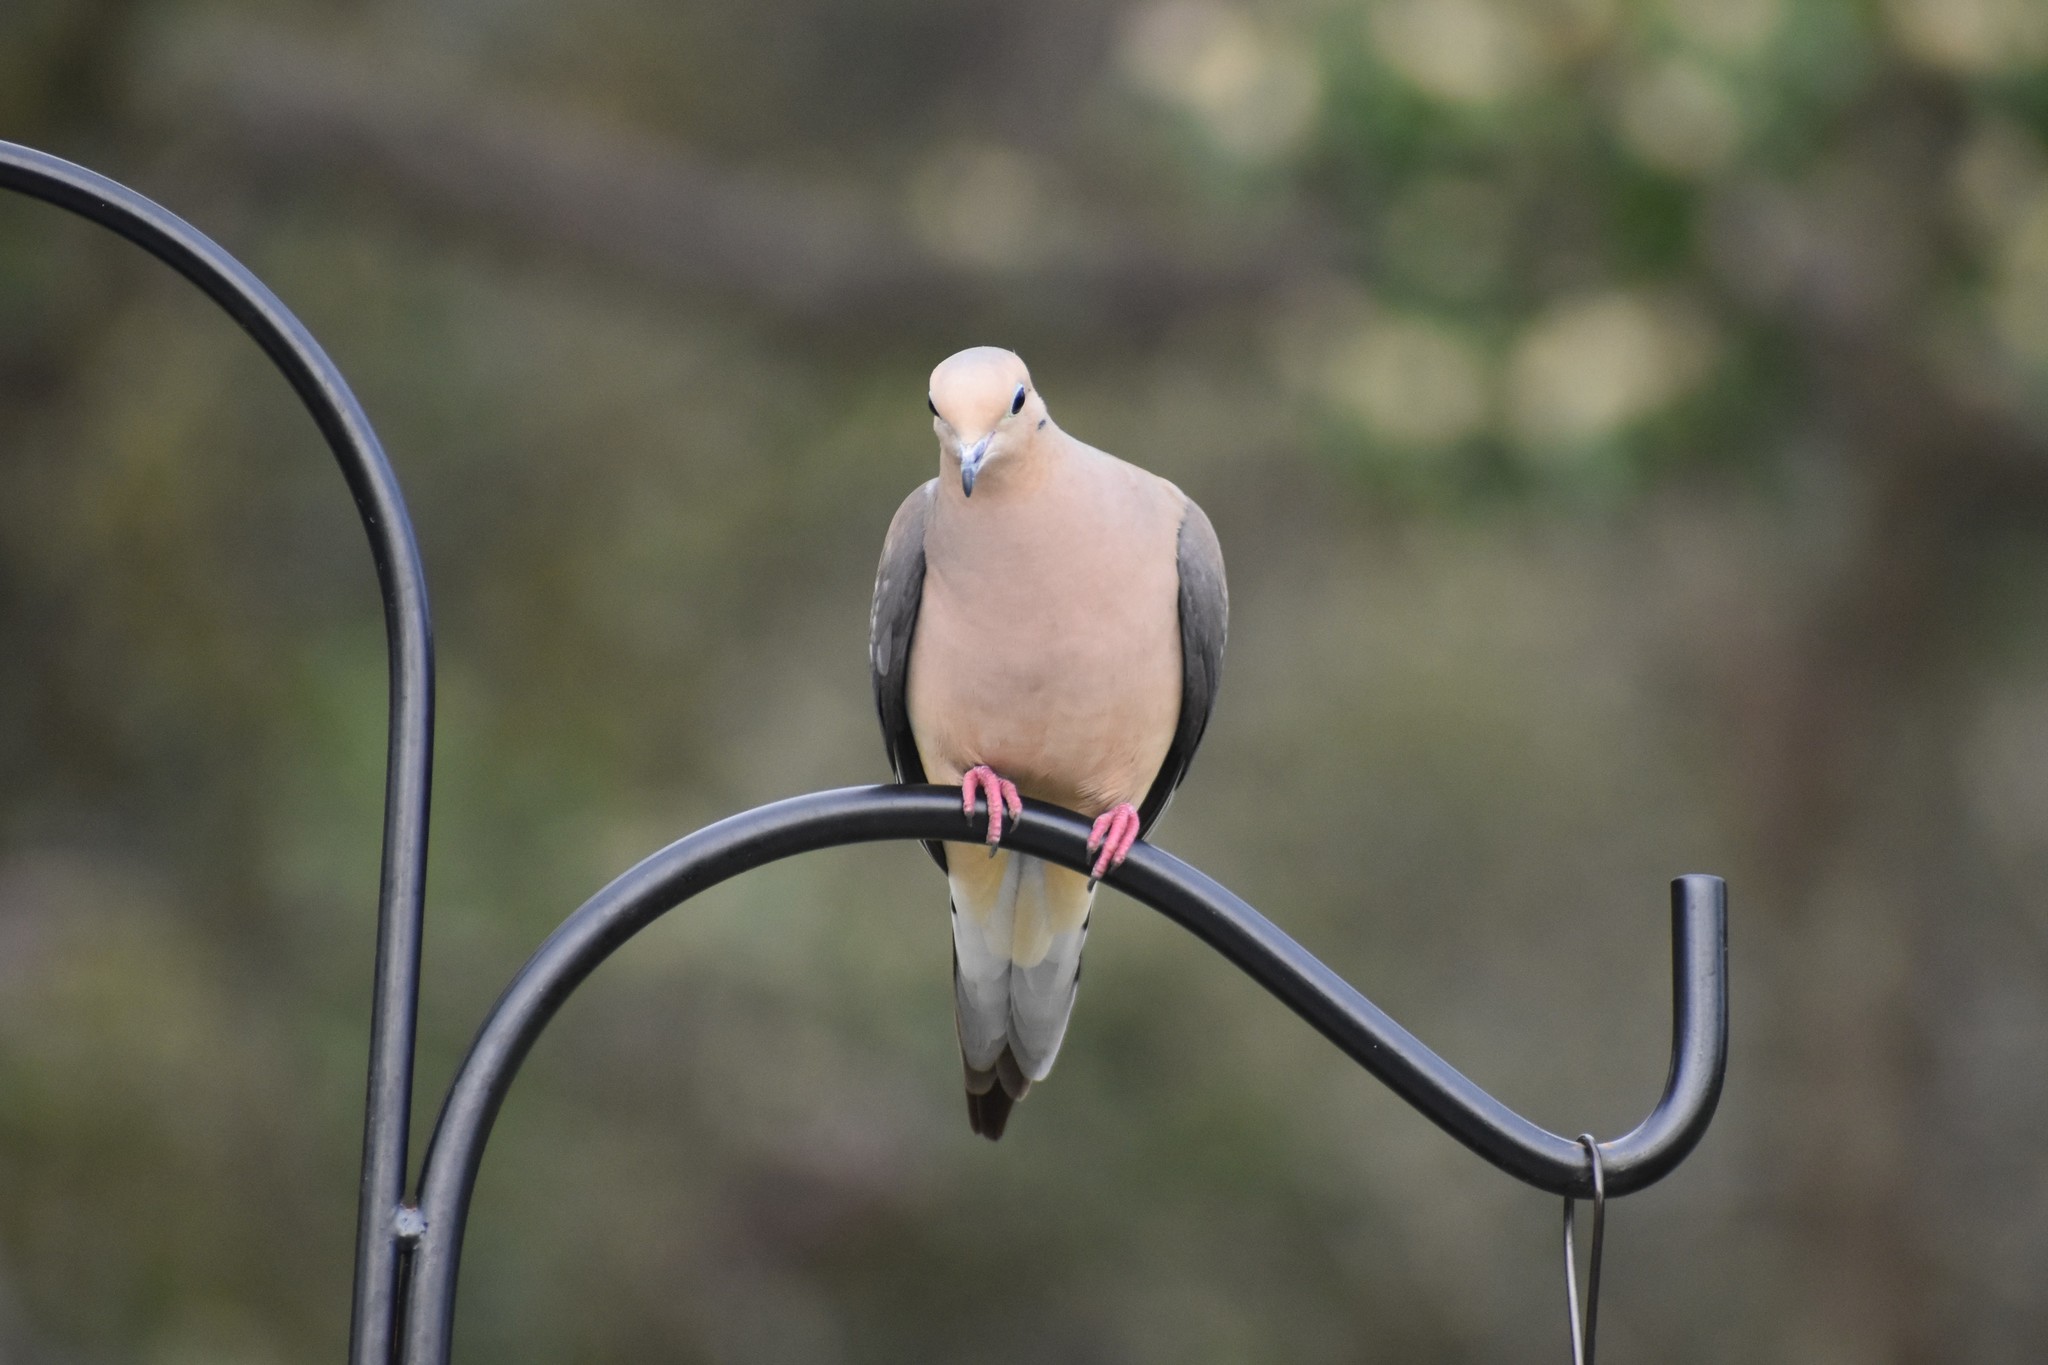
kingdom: Animalia
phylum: Chordata
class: Aves
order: Columbiformes
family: Columbidae
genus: Zenaida
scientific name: Zenaida macroura
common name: Mourning dove
